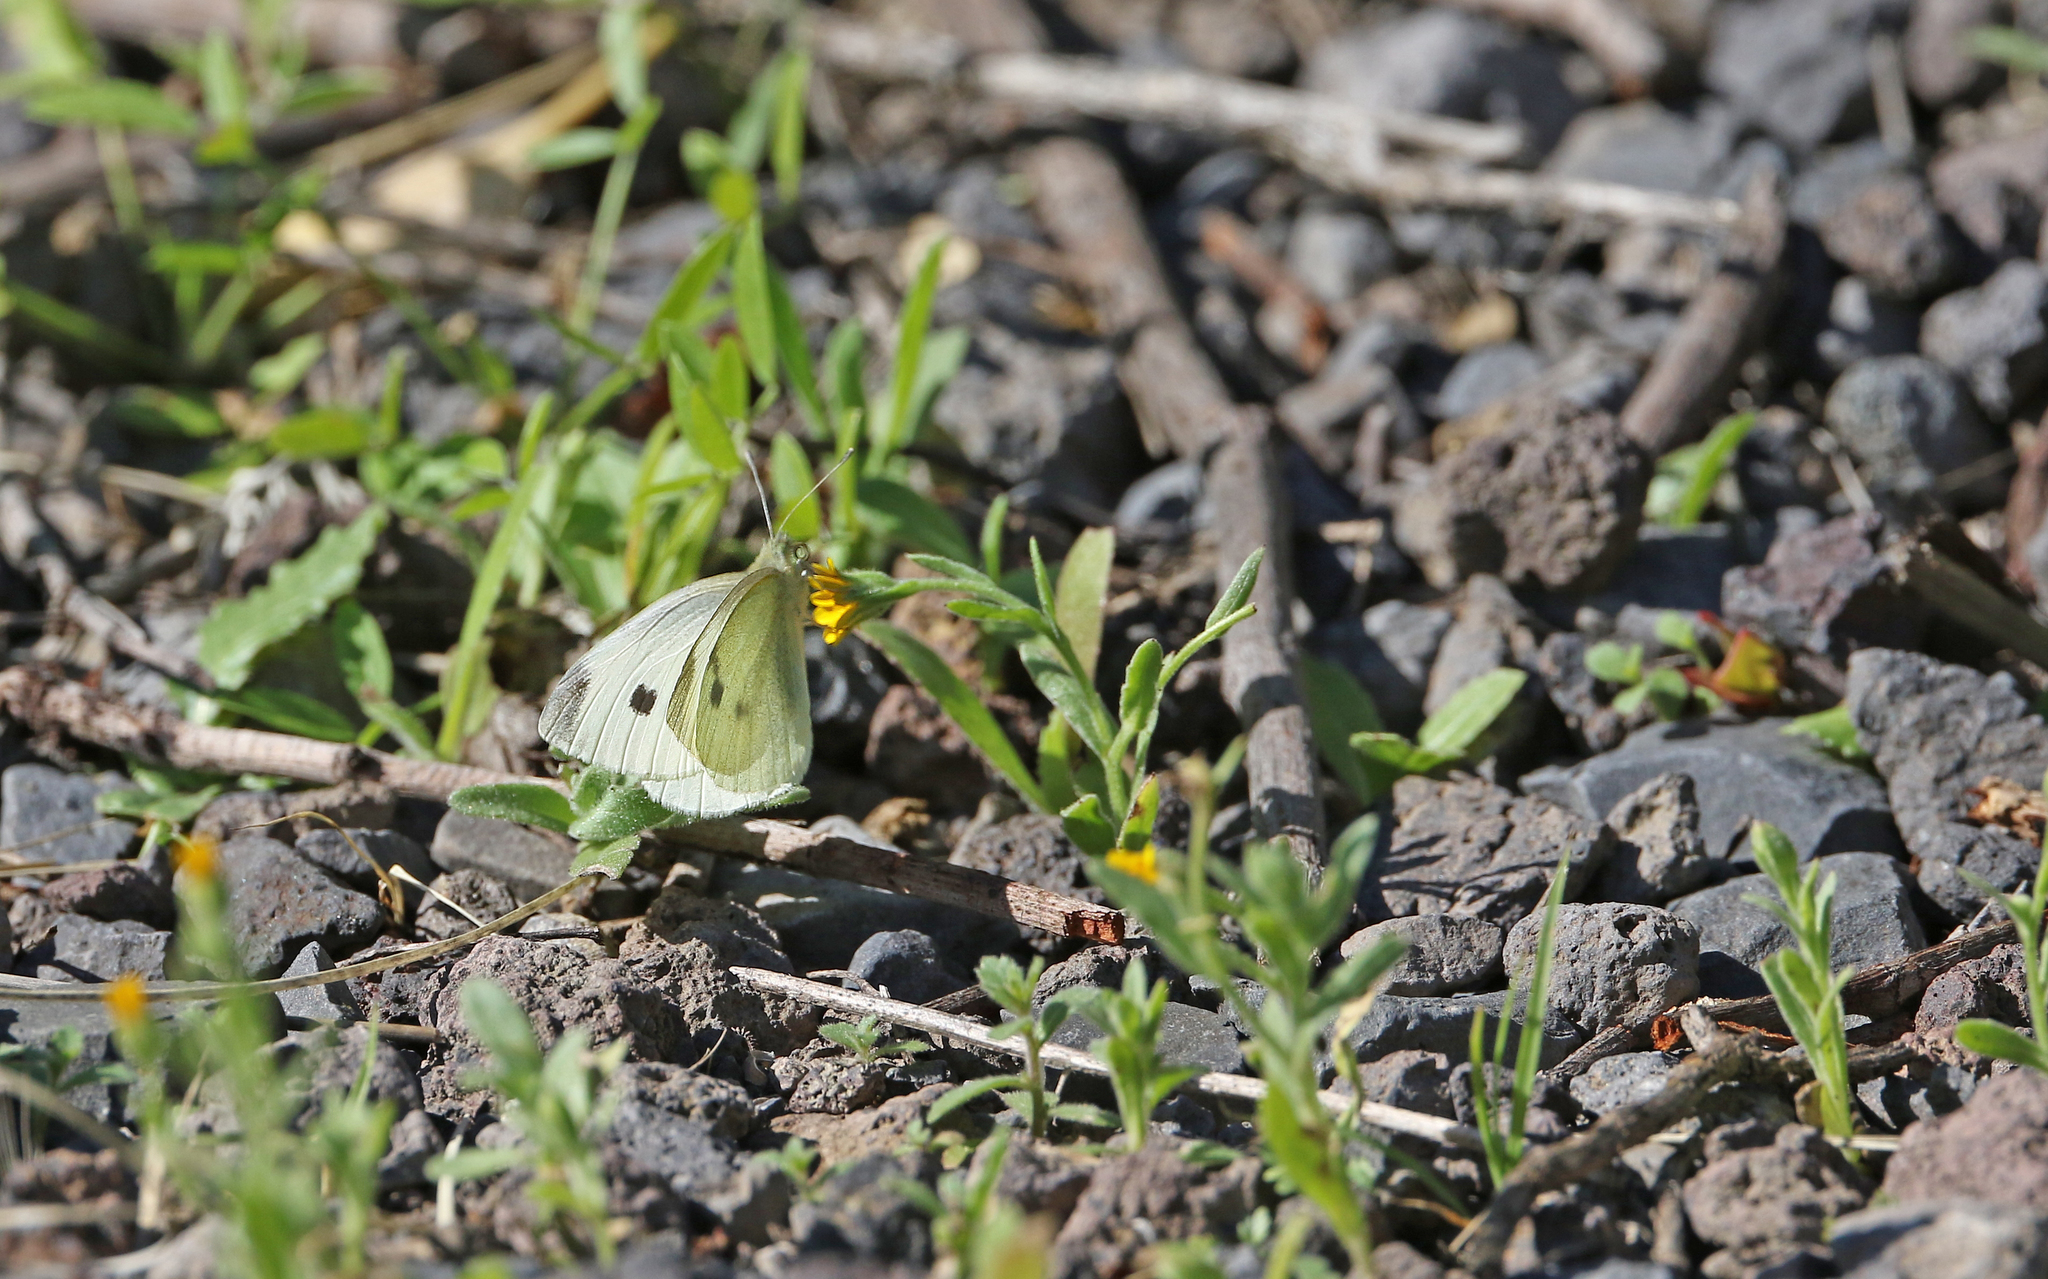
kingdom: Animalia
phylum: Arthropoda
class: Insecta
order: Lepidoptera
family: Pieridae
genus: Pieris
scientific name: Pieris rapae
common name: Small white
